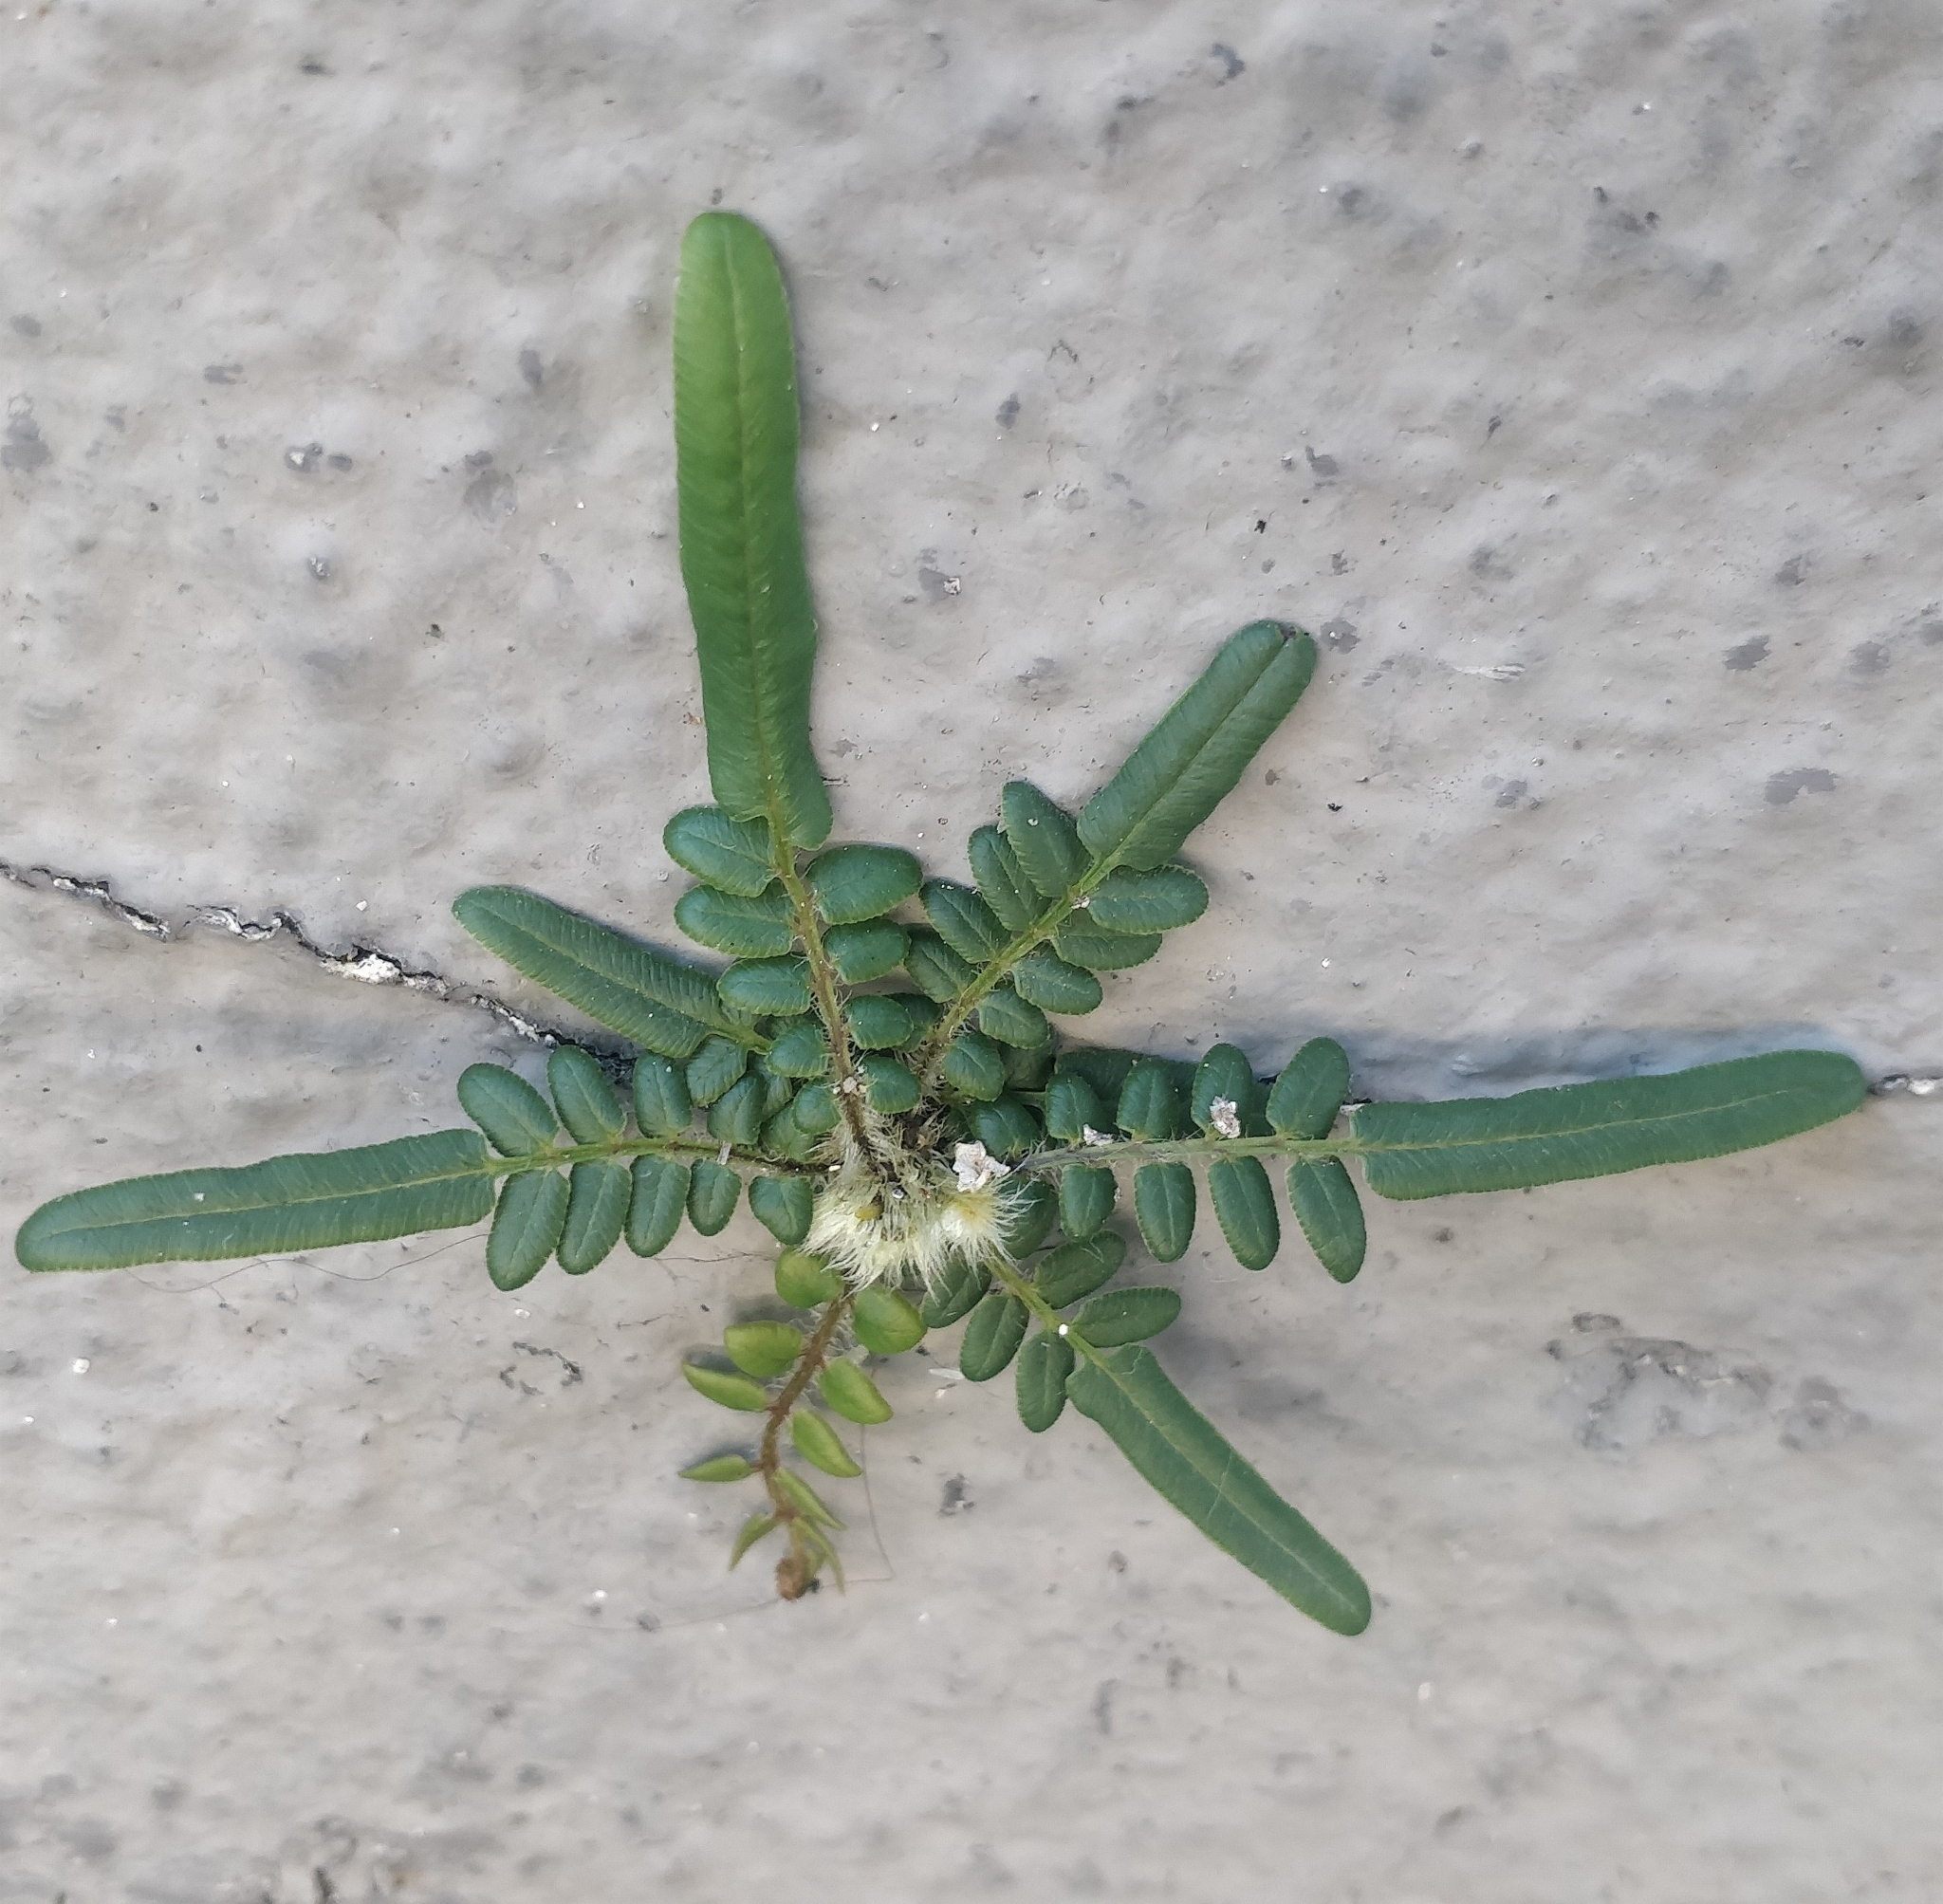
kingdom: Plantae
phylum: Tracheophyta
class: Polypodiopsida
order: Polypodiales
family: Pteridaceae
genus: Pteris
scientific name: Pteris vittata
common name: Ladder brake
